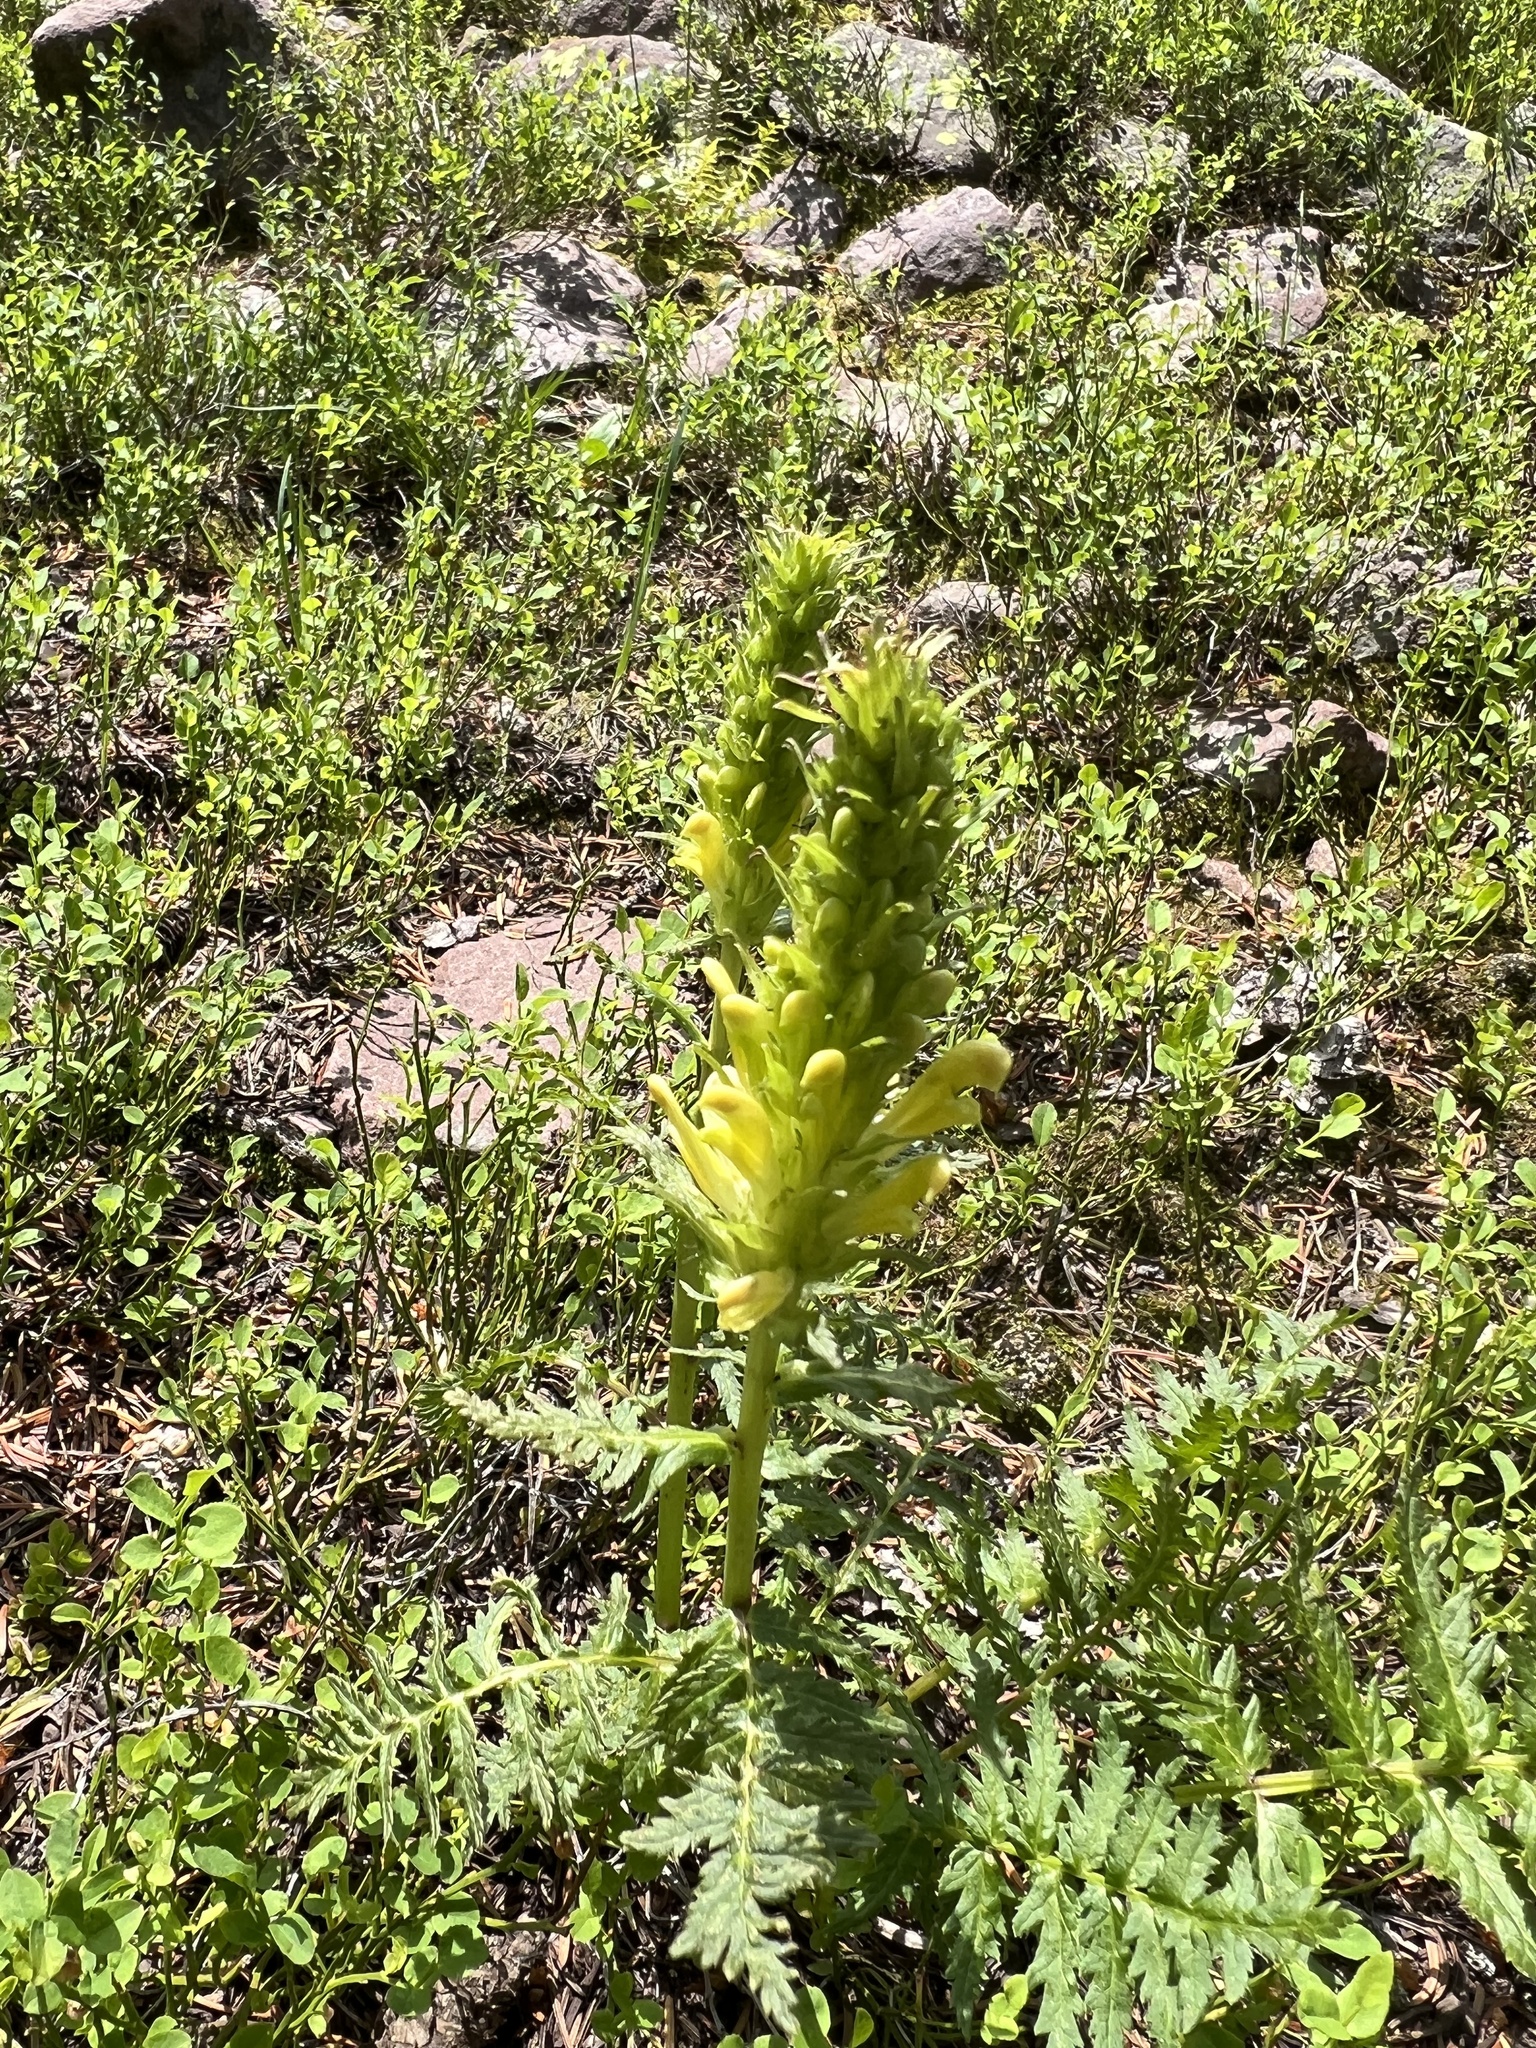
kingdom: Plantae
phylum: Tracheophyta
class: Magnoliopsida
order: Lamiales
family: Orobanchaceae
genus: Pedicularis
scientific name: Pedicularis bracteosa
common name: Bracted lousewort
